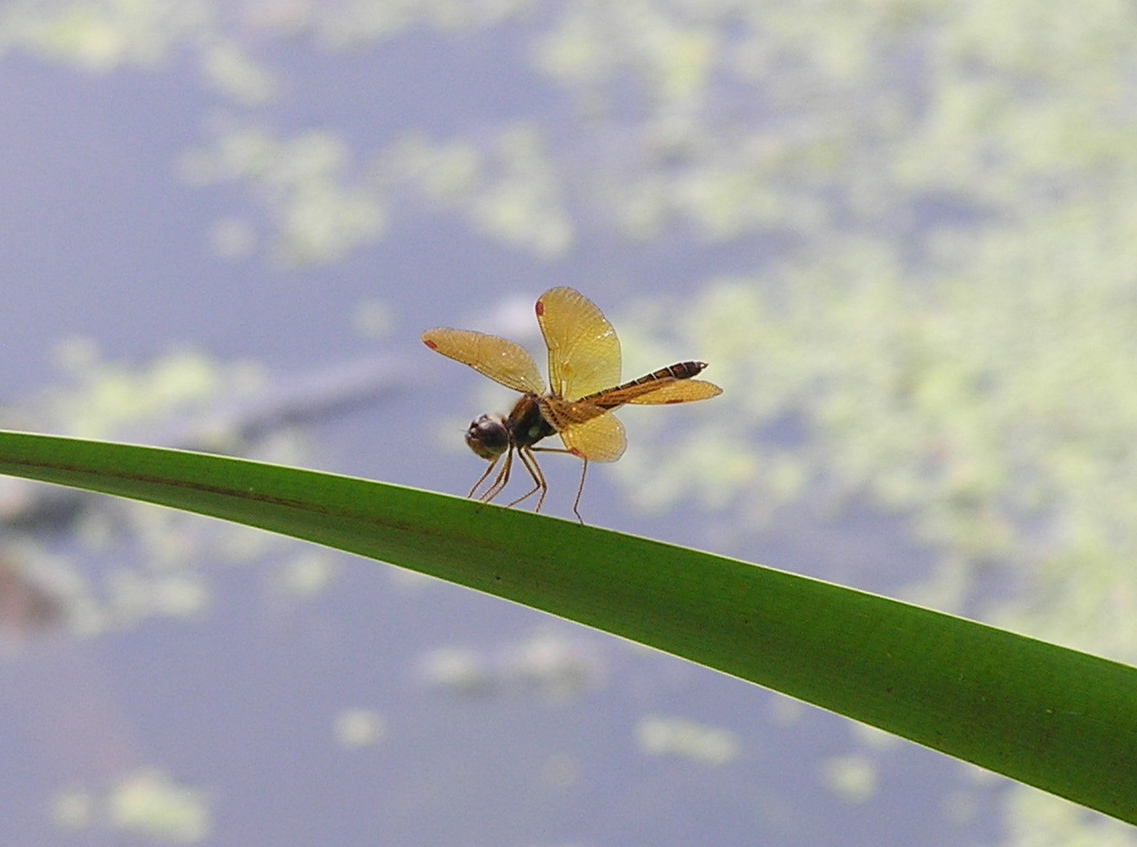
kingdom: Animalia
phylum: Arthropoda
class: Insecta
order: Odonata
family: Libellulidae
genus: Perithemis
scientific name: Perithemis tenera
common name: Eastern amberwing
